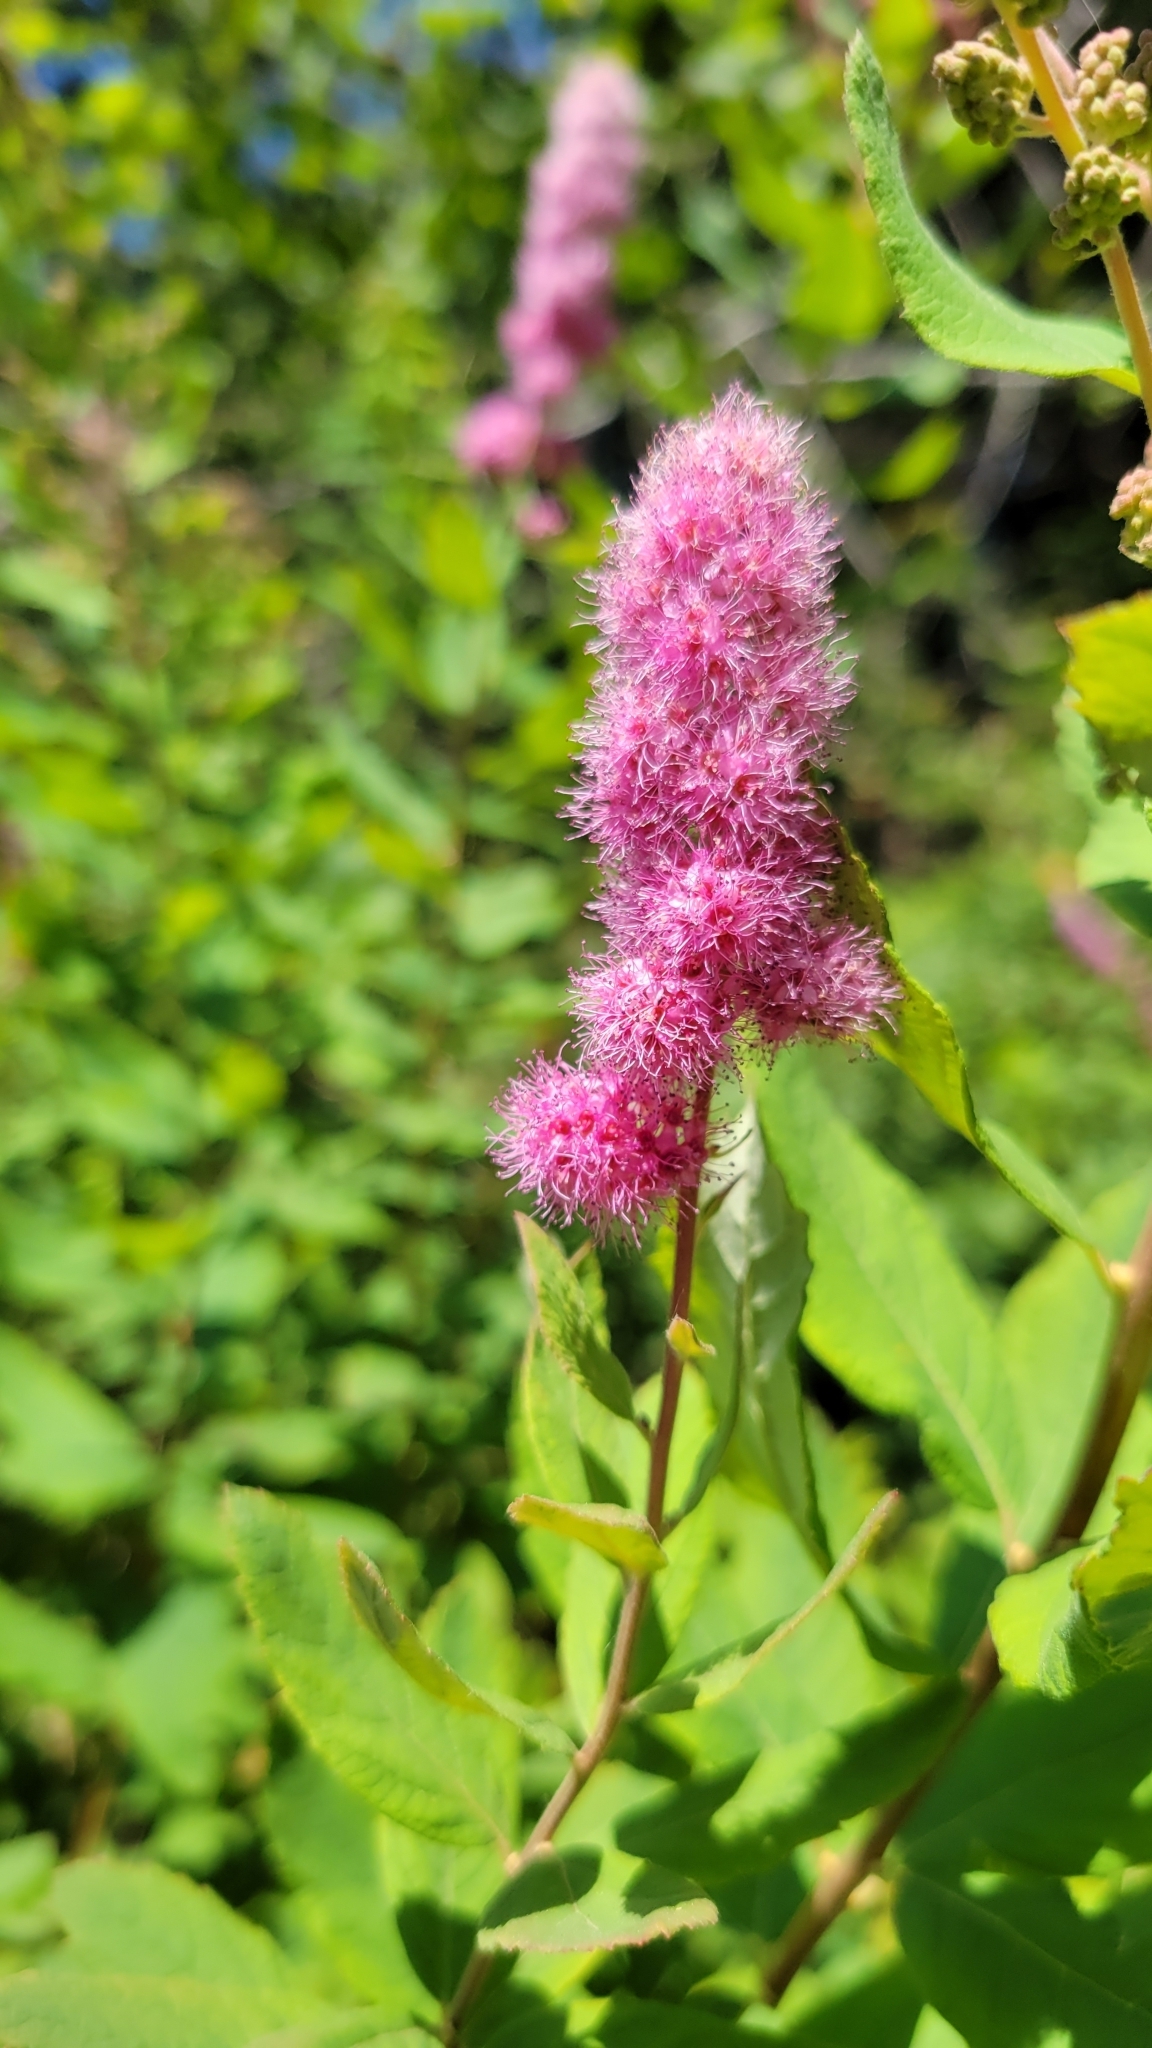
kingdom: Plantae
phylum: Tracheophyta
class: Magnoliopsida
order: Rosales
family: Rosaceae
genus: Spiraea
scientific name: Spiraea douglasii
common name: Steeplebush
